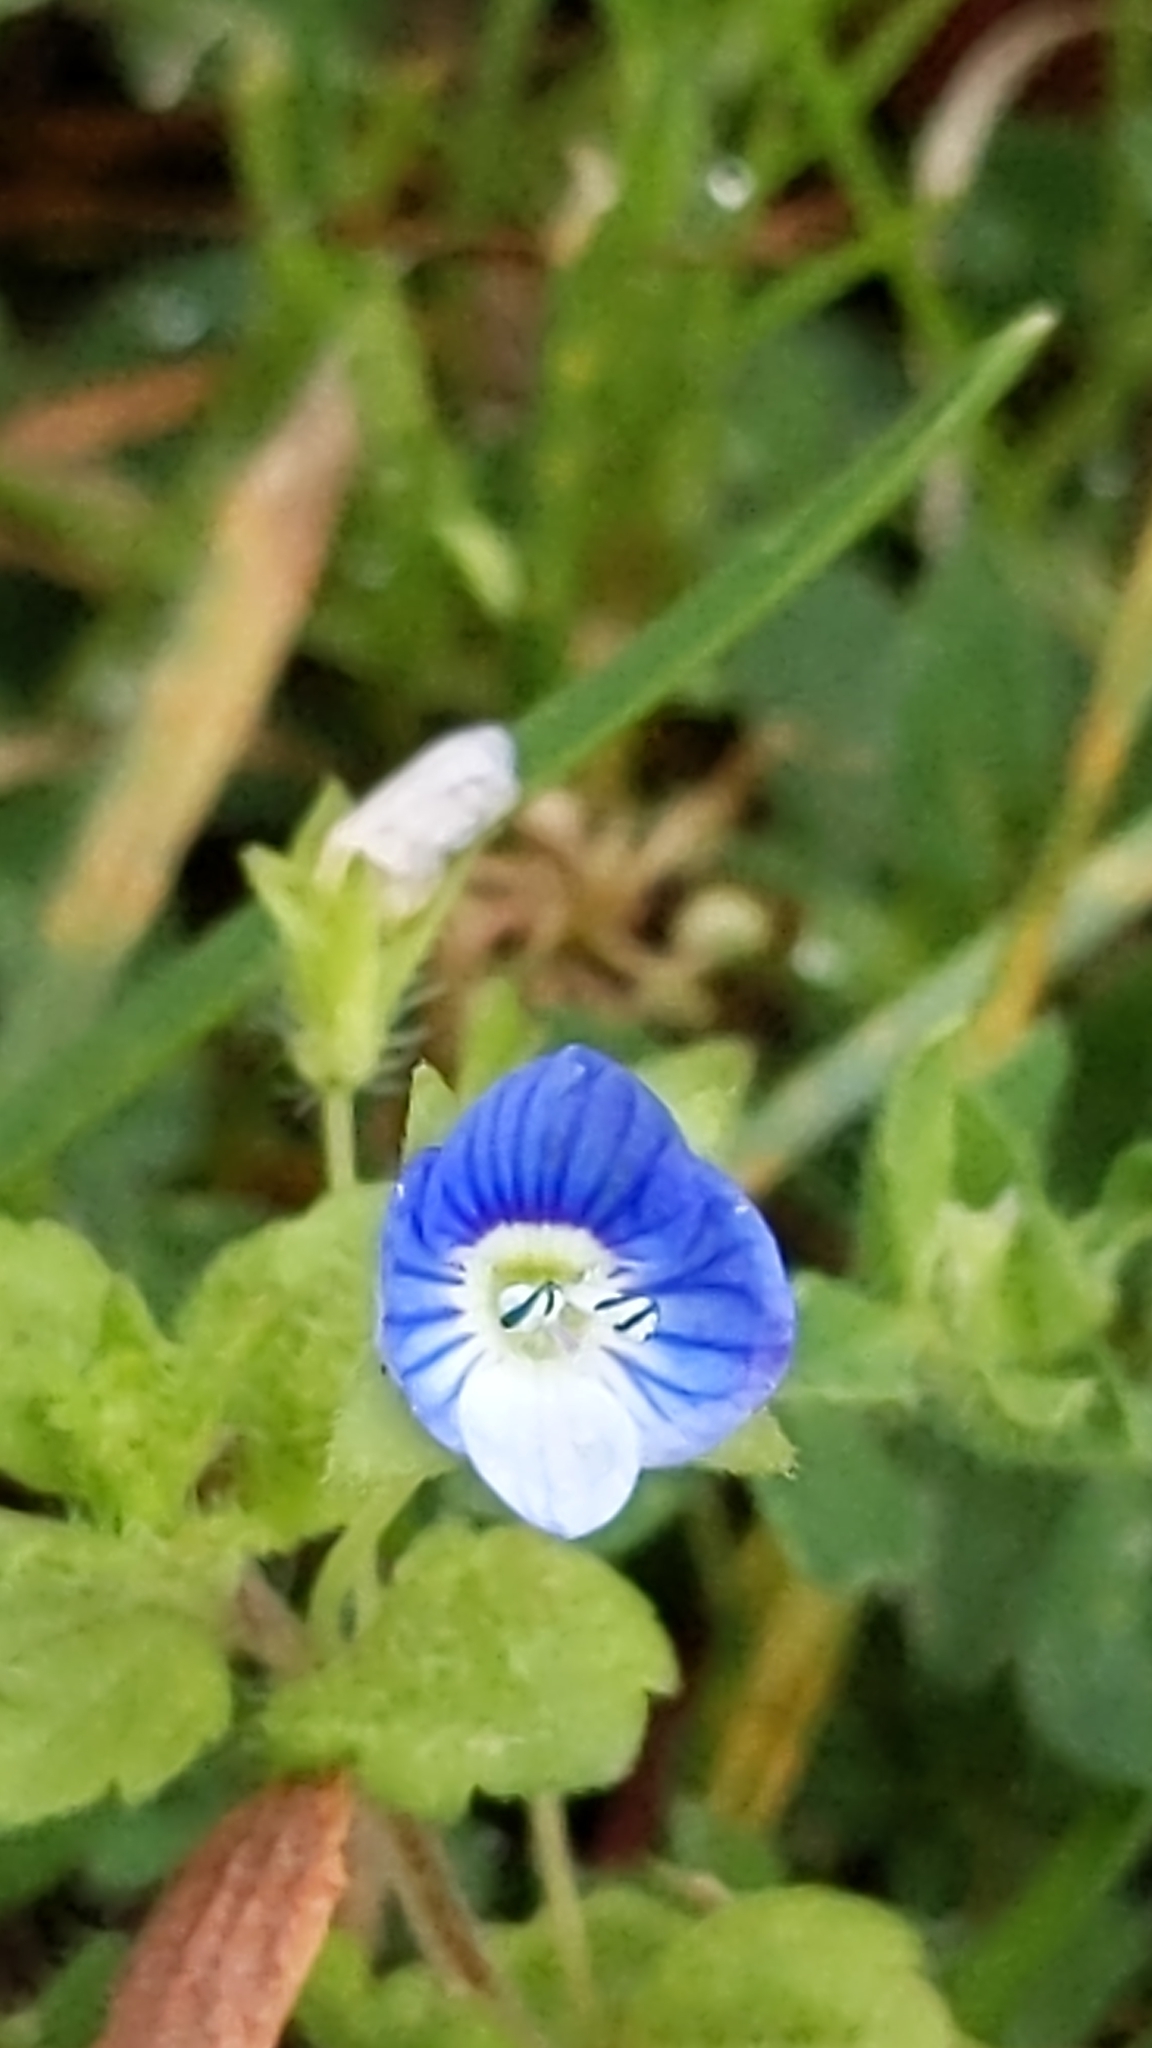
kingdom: Plantae
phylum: Tracheophyta
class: Magnoliopsida
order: Lamiales
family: Plantaginaceae
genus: Veronica
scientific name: Veronica persica
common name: Common field-speedwell
